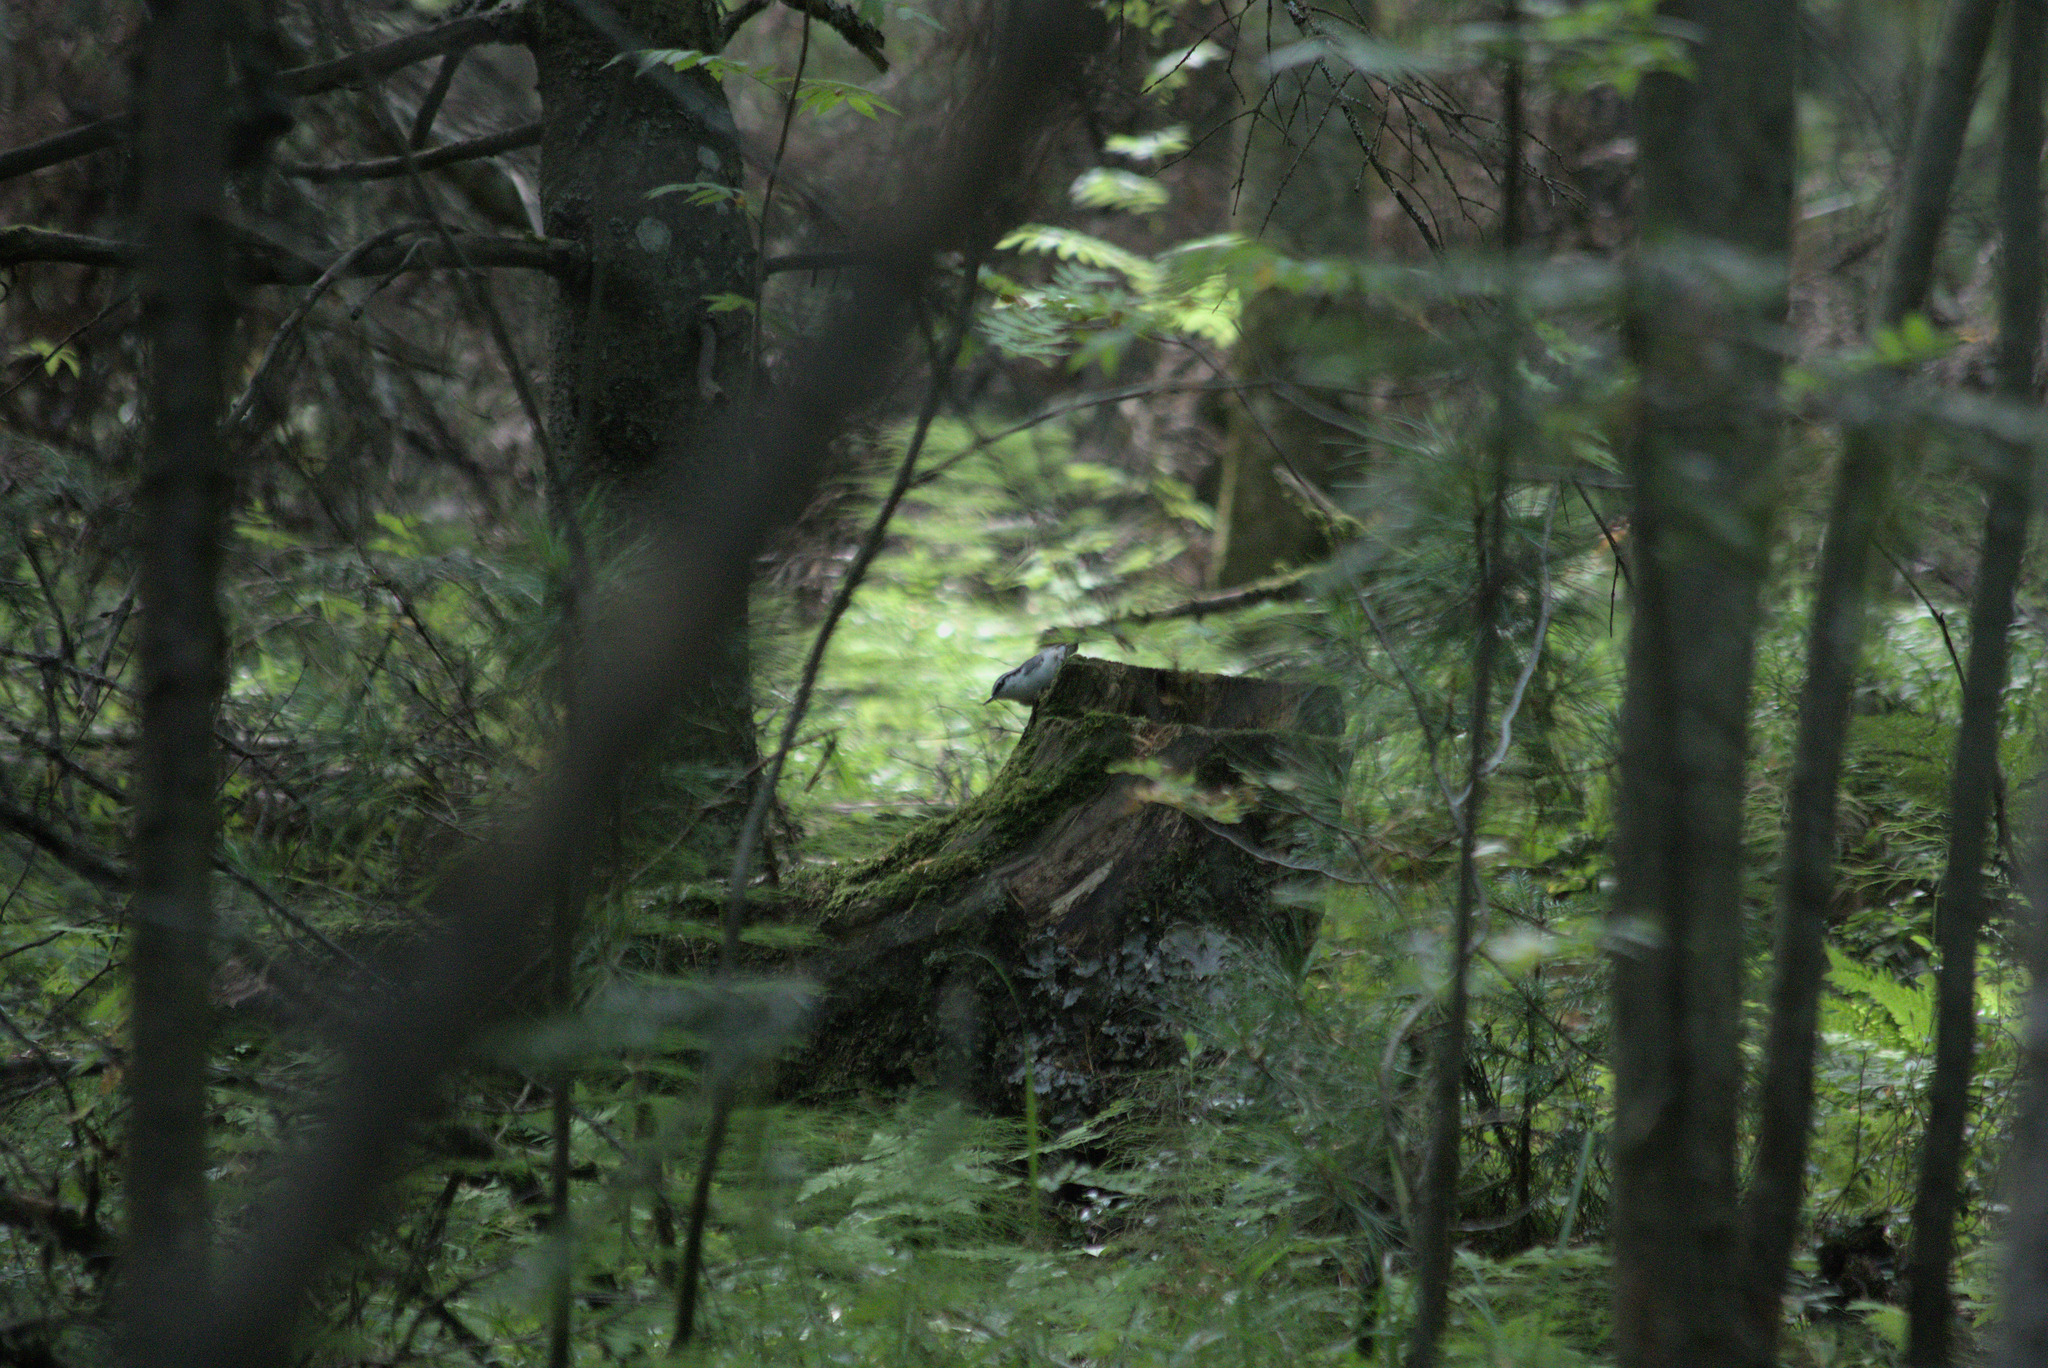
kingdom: Animalia
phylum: Chordata
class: Aves
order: Passeriformes
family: Sittidae
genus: Sitta
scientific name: Sitta europaea
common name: Eurasian nuthatch
